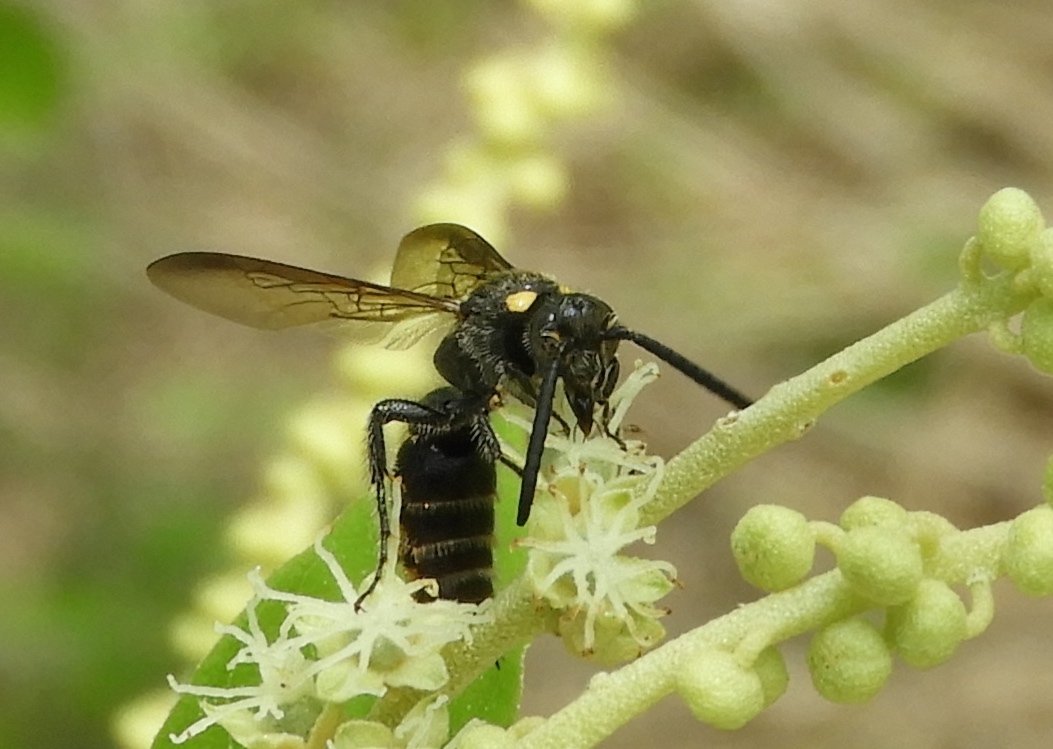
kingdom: Animalia
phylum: Arthropoda
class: Insecta
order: Hymenoptera
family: Scoliidae
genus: Scolia
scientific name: Scolia nobilitata
